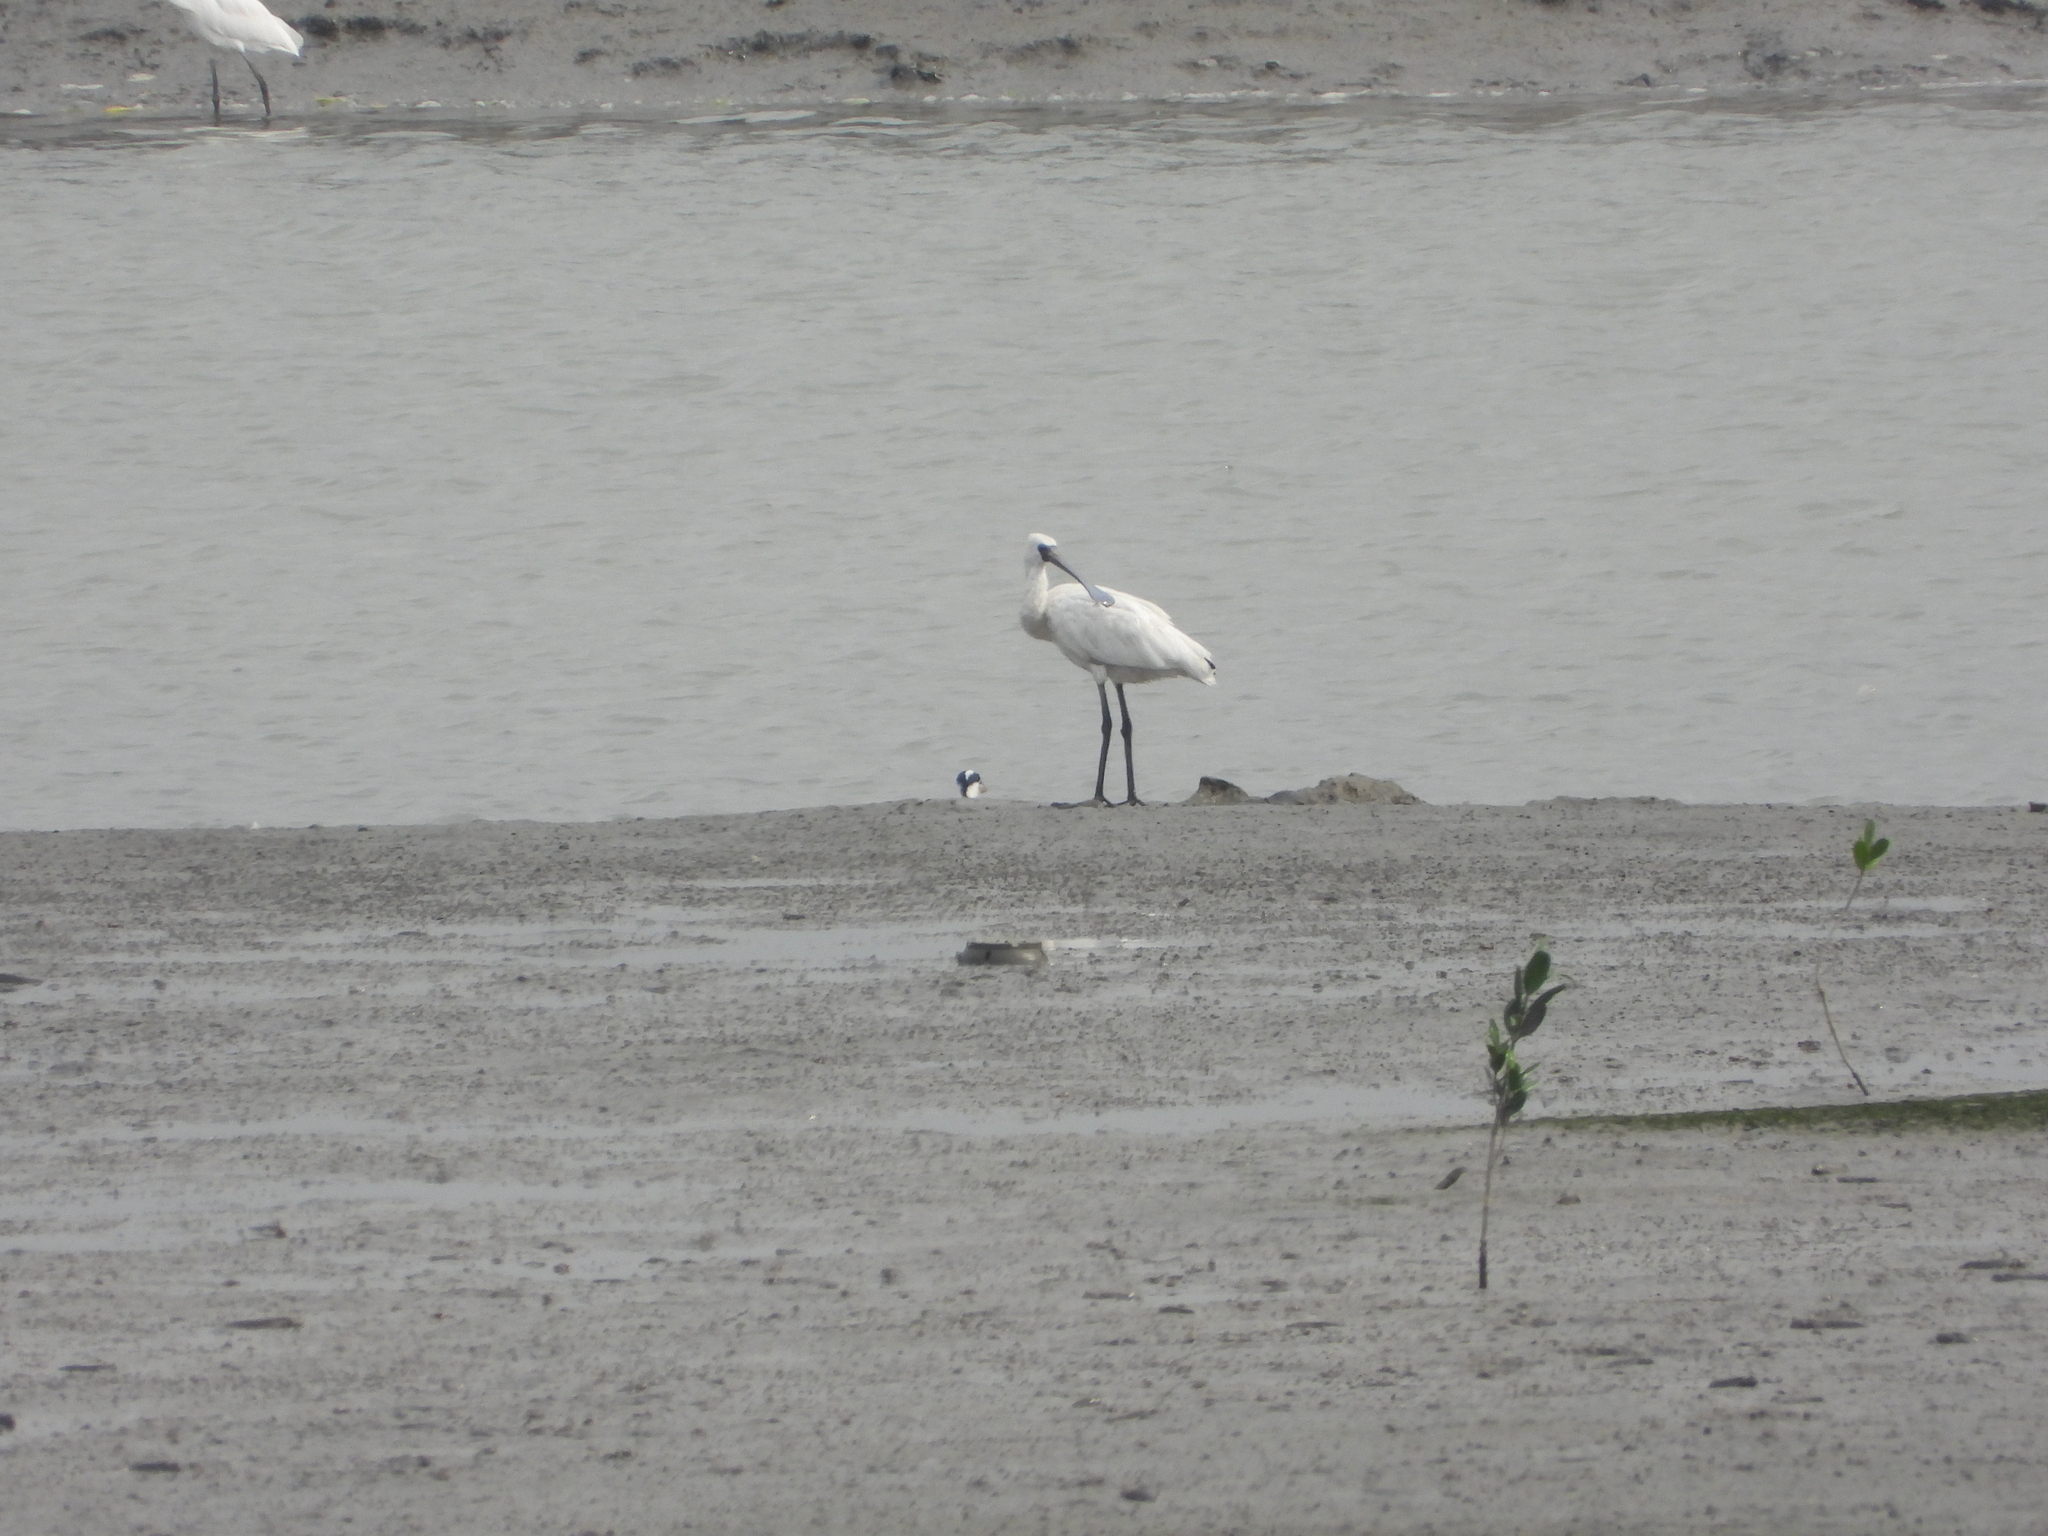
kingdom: Animalia
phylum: Chordata
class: Aves
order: Pelecaniformes
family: Threskiornithidae
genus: Platalea
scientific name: Platalea minor
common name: Black-faced spoonbill
